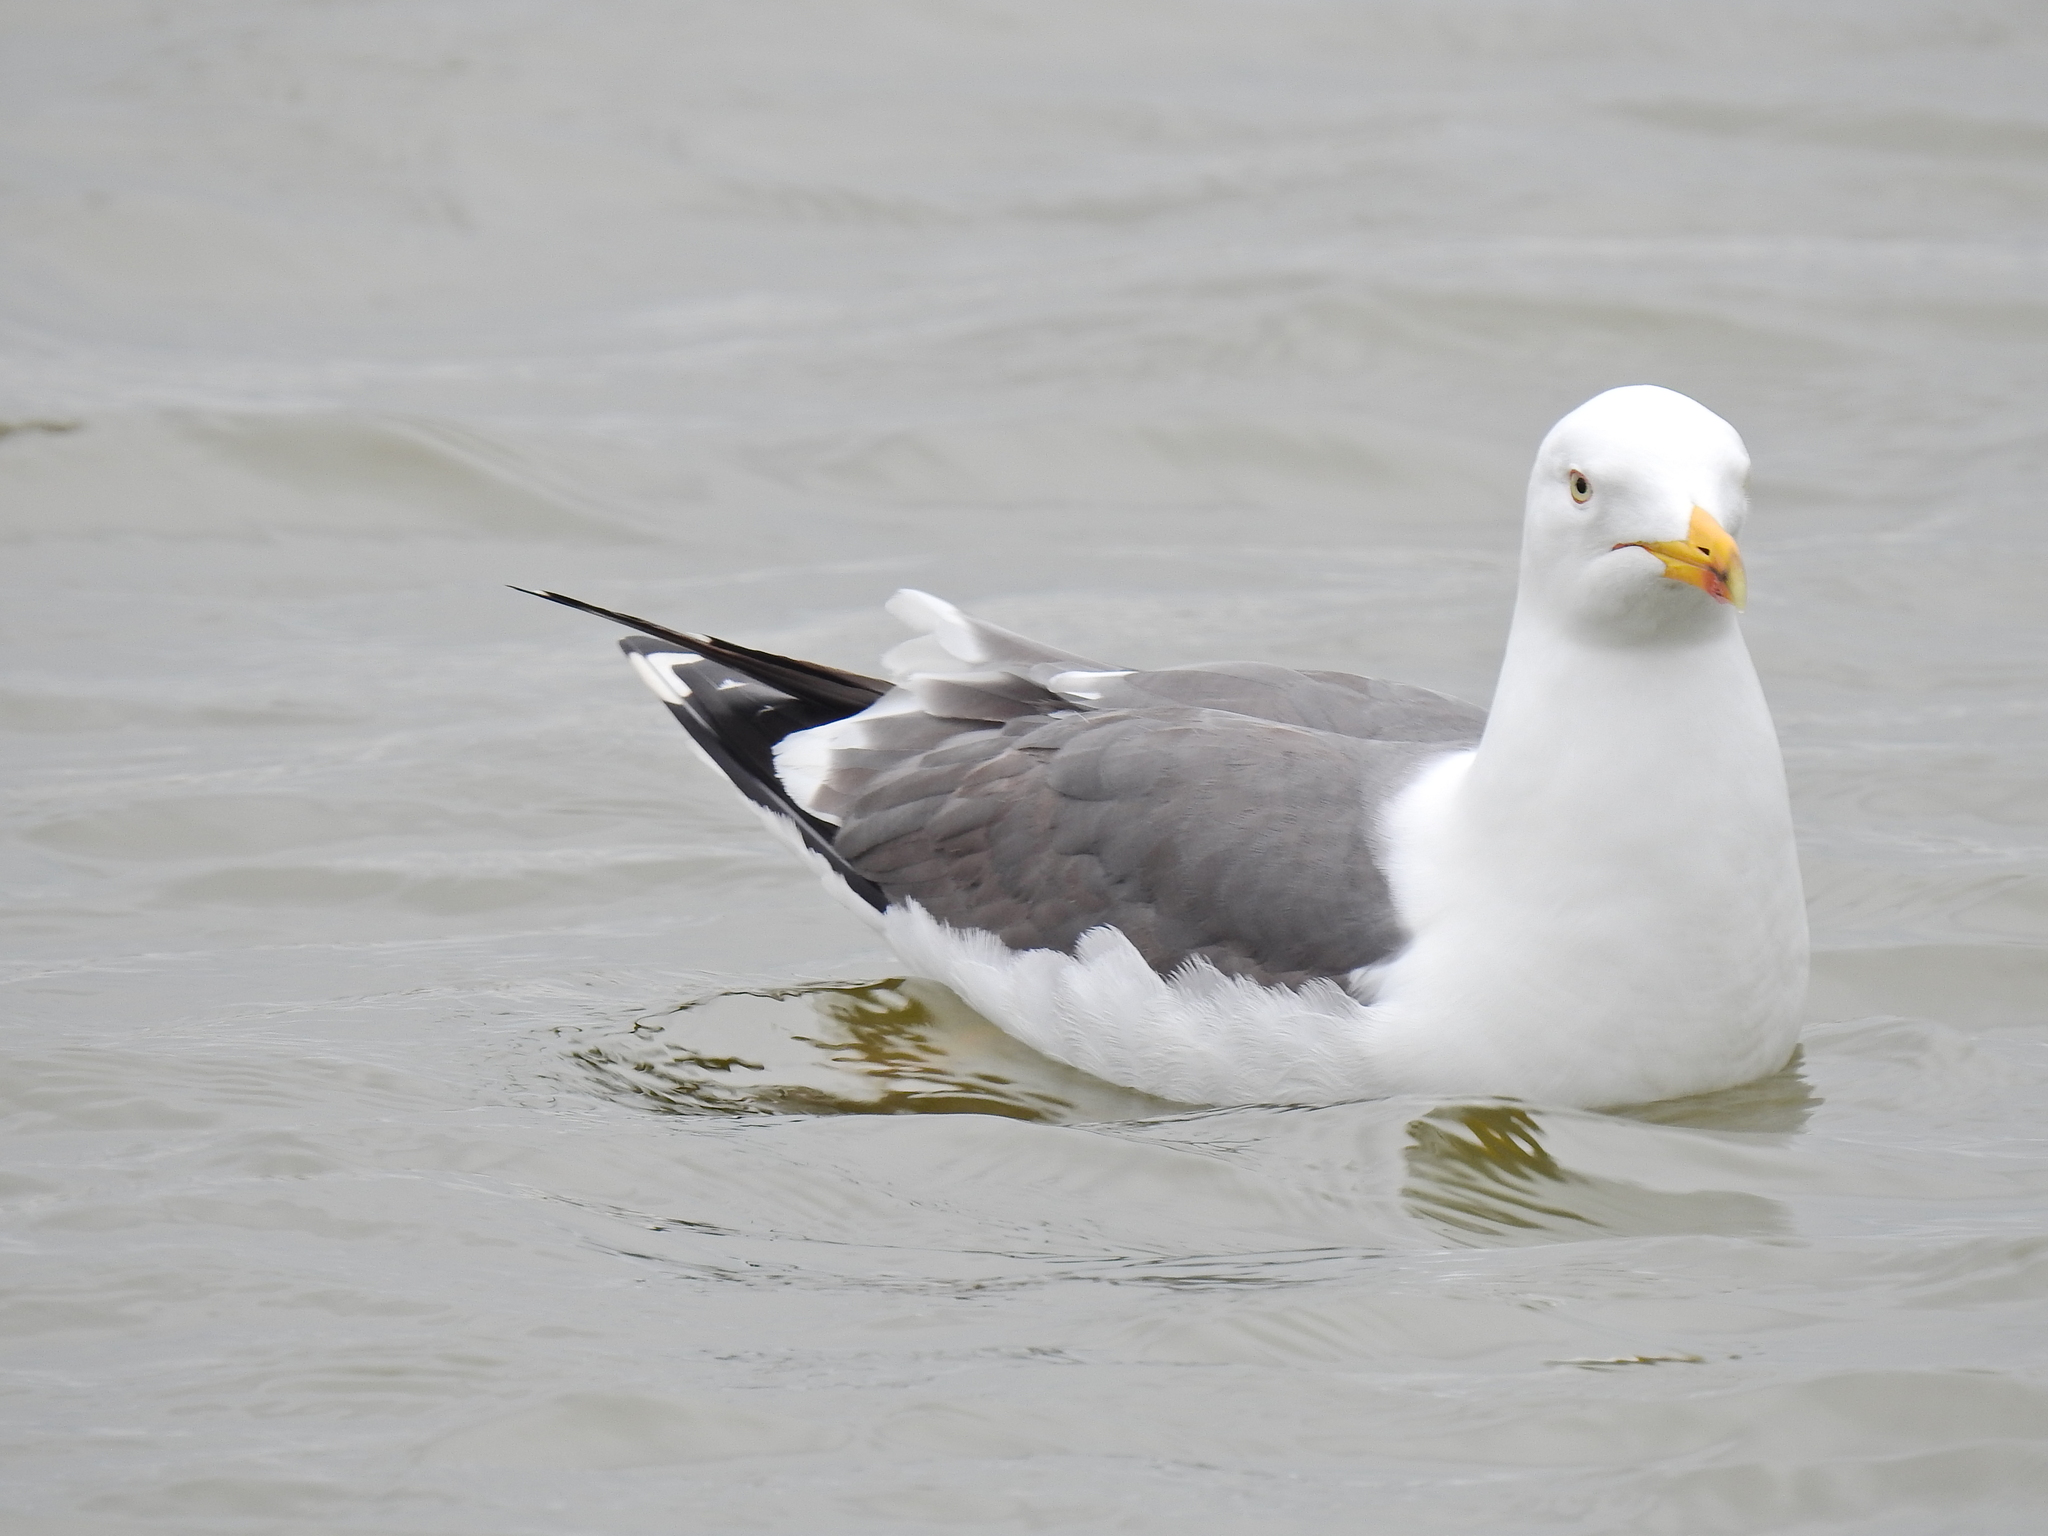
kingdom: Animalia
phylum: Chordata
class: Aves
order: Charadriiformes
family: Laridae
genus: Larus
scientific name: Larus fuscus
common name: Lesser black-backed gull
